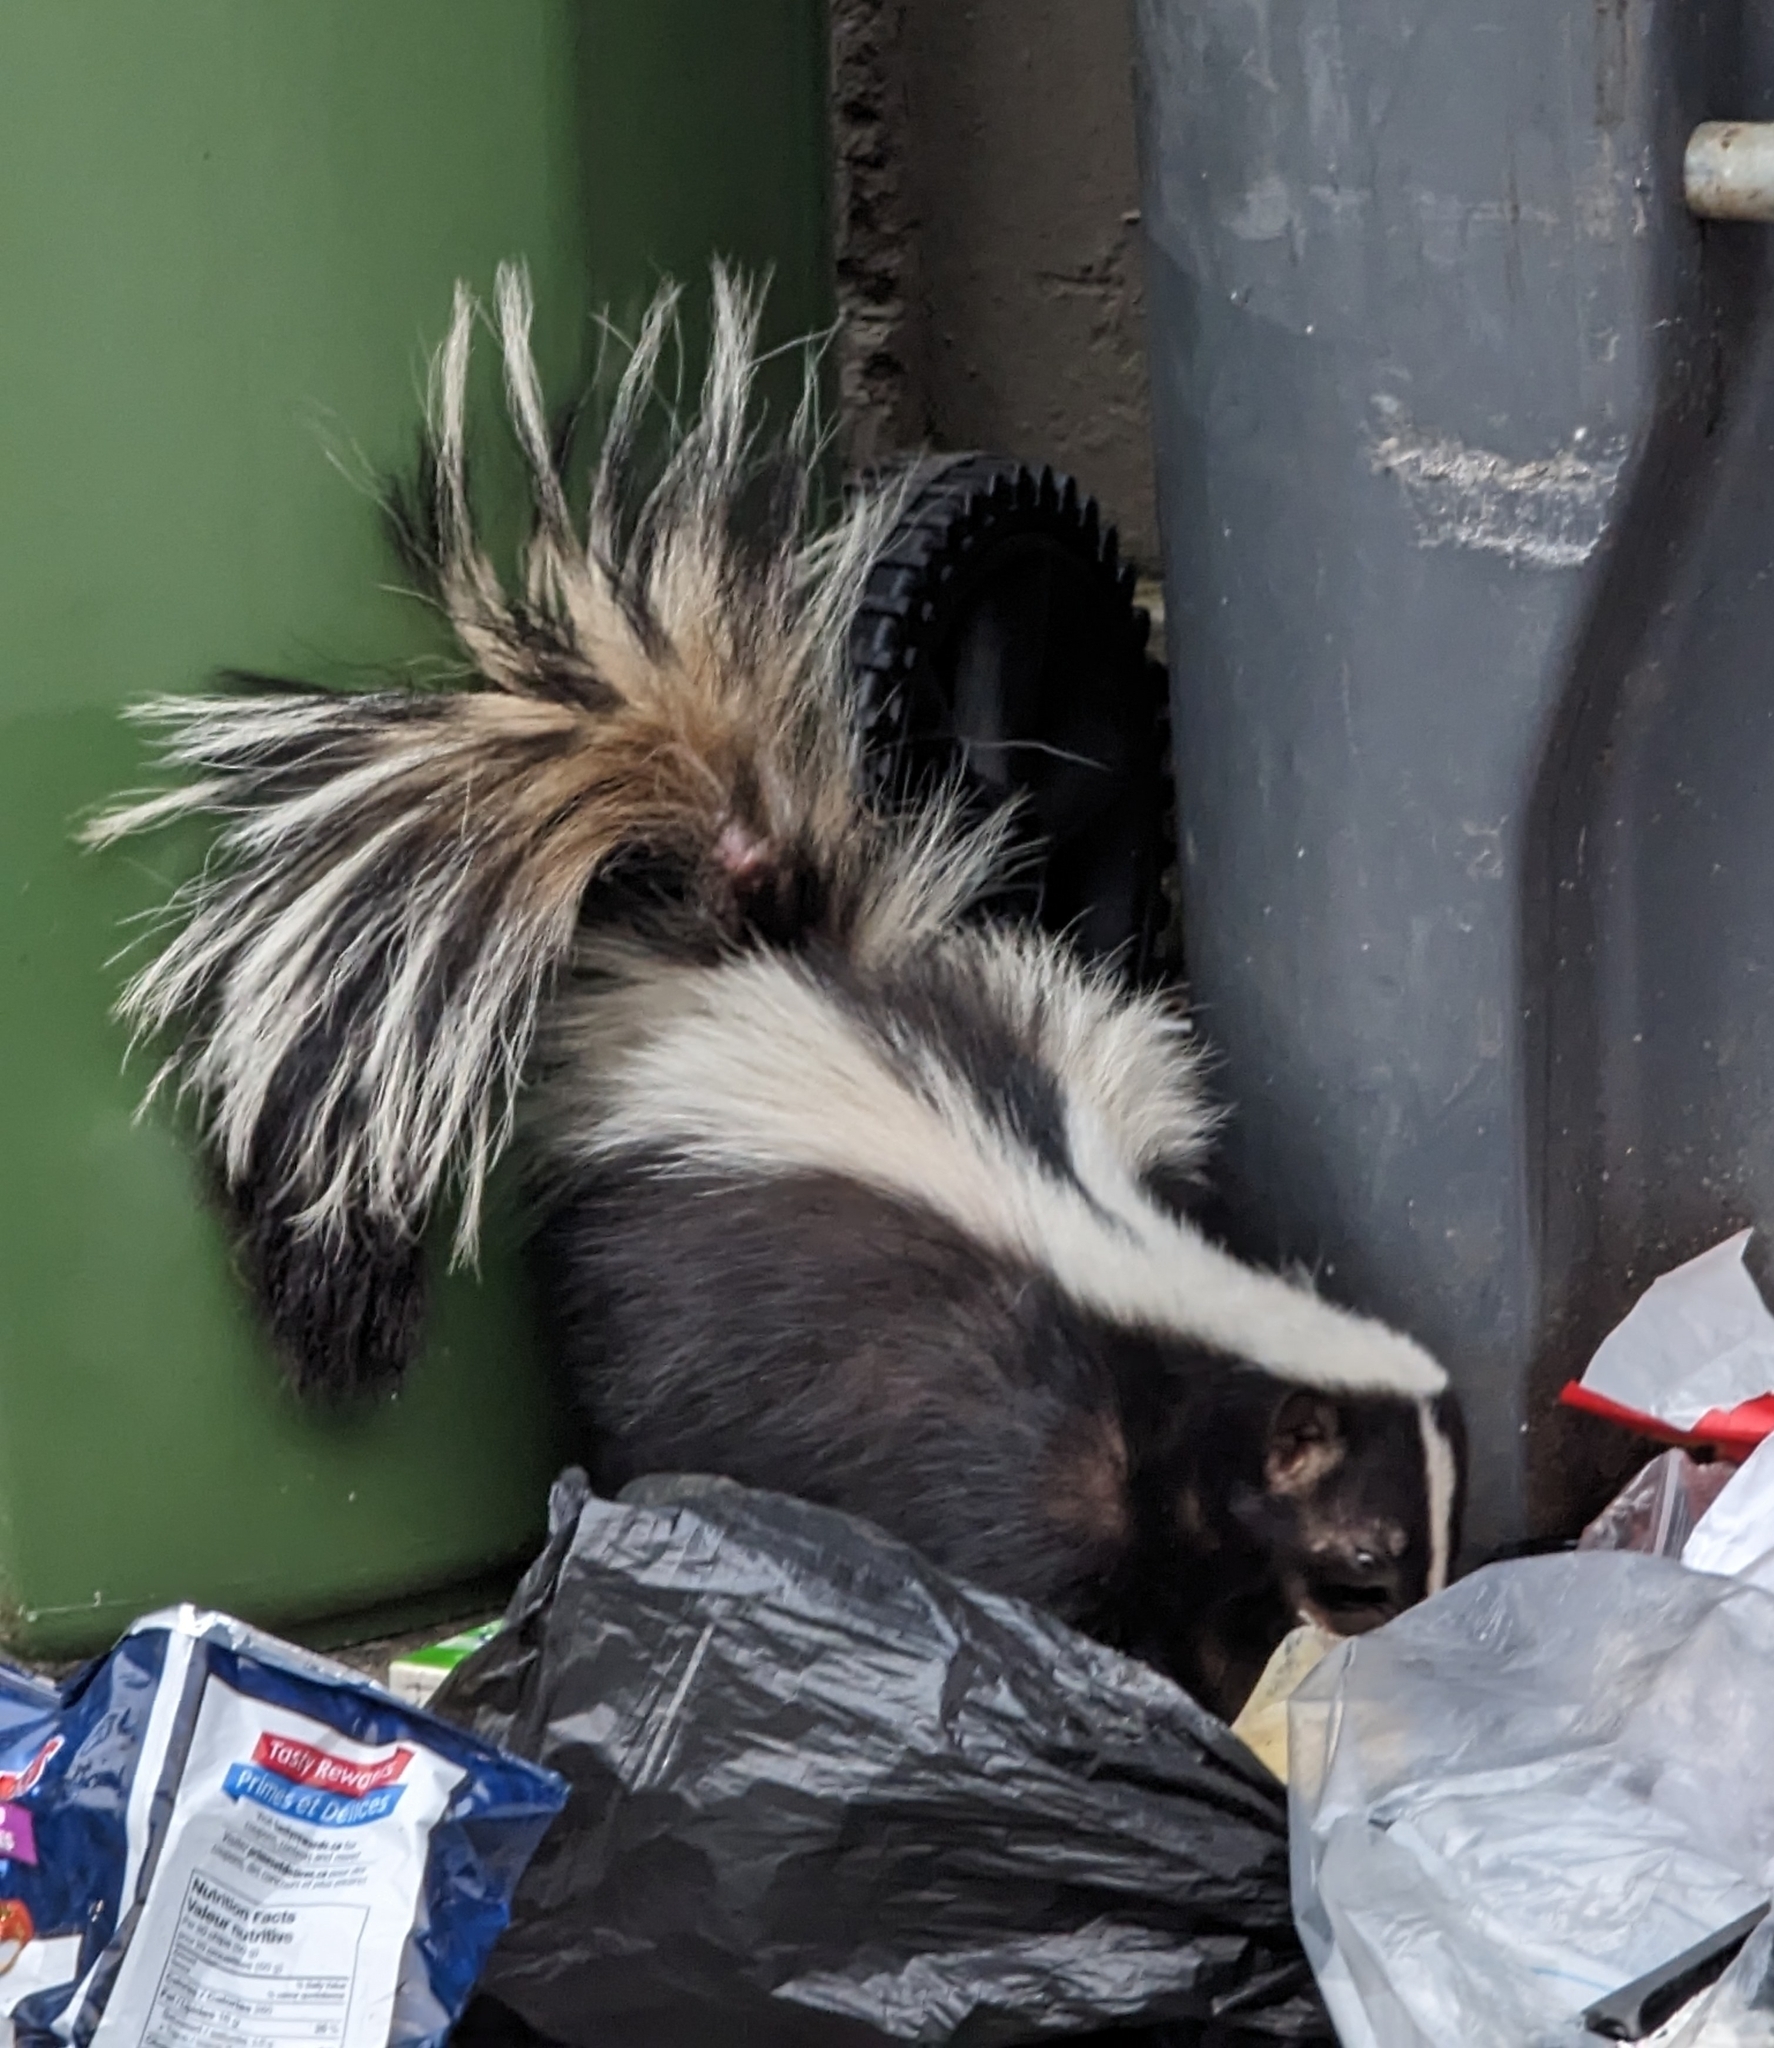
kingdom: Animalia
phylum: Chordata
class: Mammalia
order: Carnivora
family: Mephitidae
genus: Mephitis
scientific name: Mephitis mephitis
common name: Striped skunk
